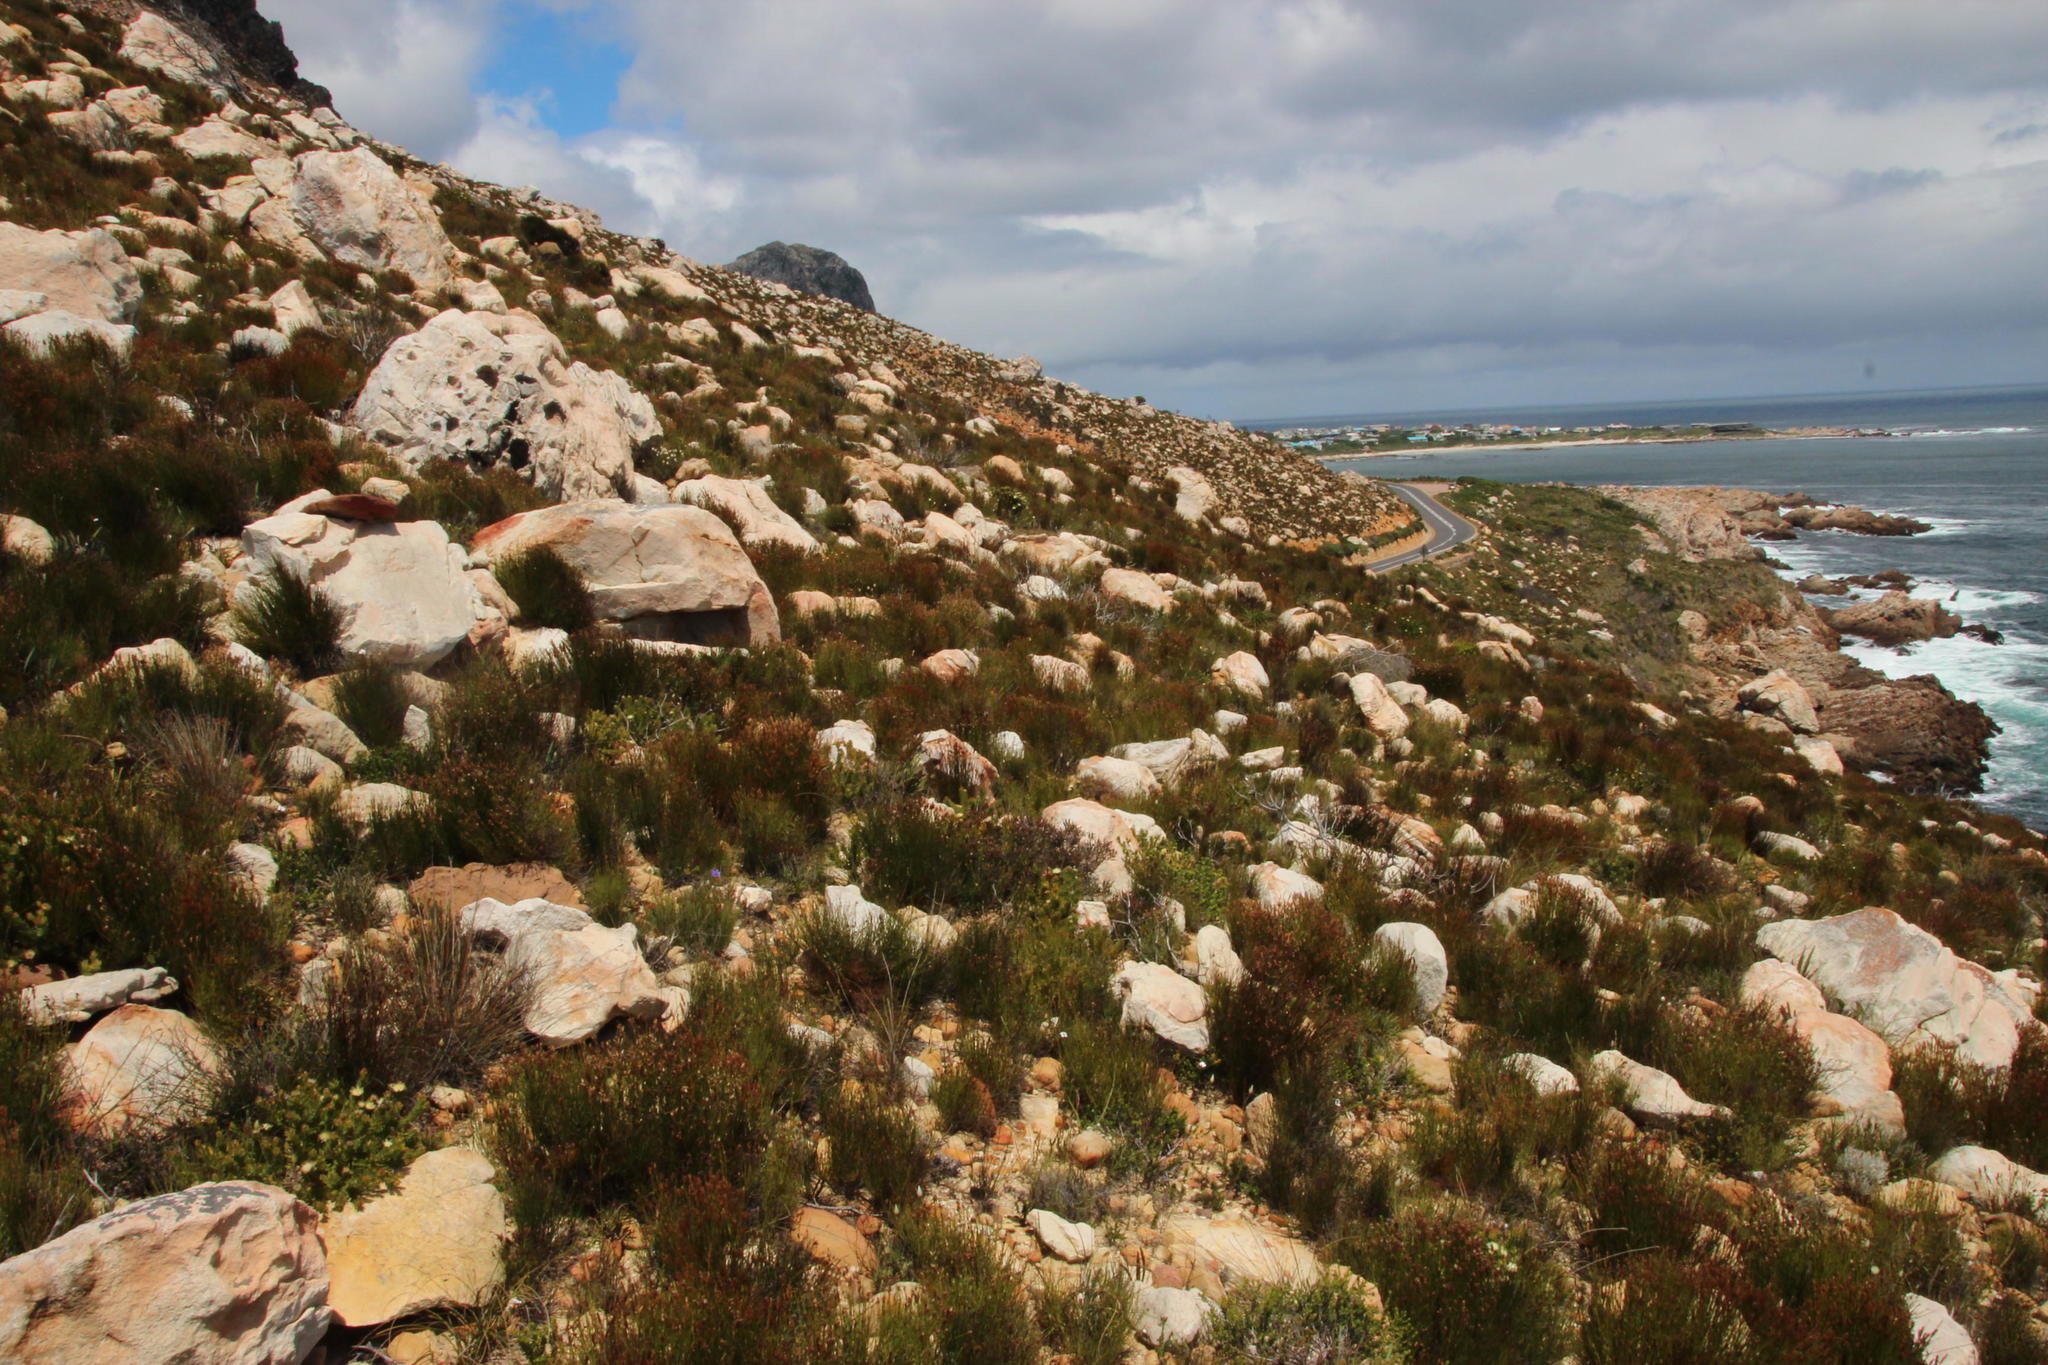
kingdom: Plantae
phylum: Tracheophyta
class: Magnoliopsida
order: Proteales
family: Proteaceae
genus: Diastella
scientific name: Diastella thymelaeoides
